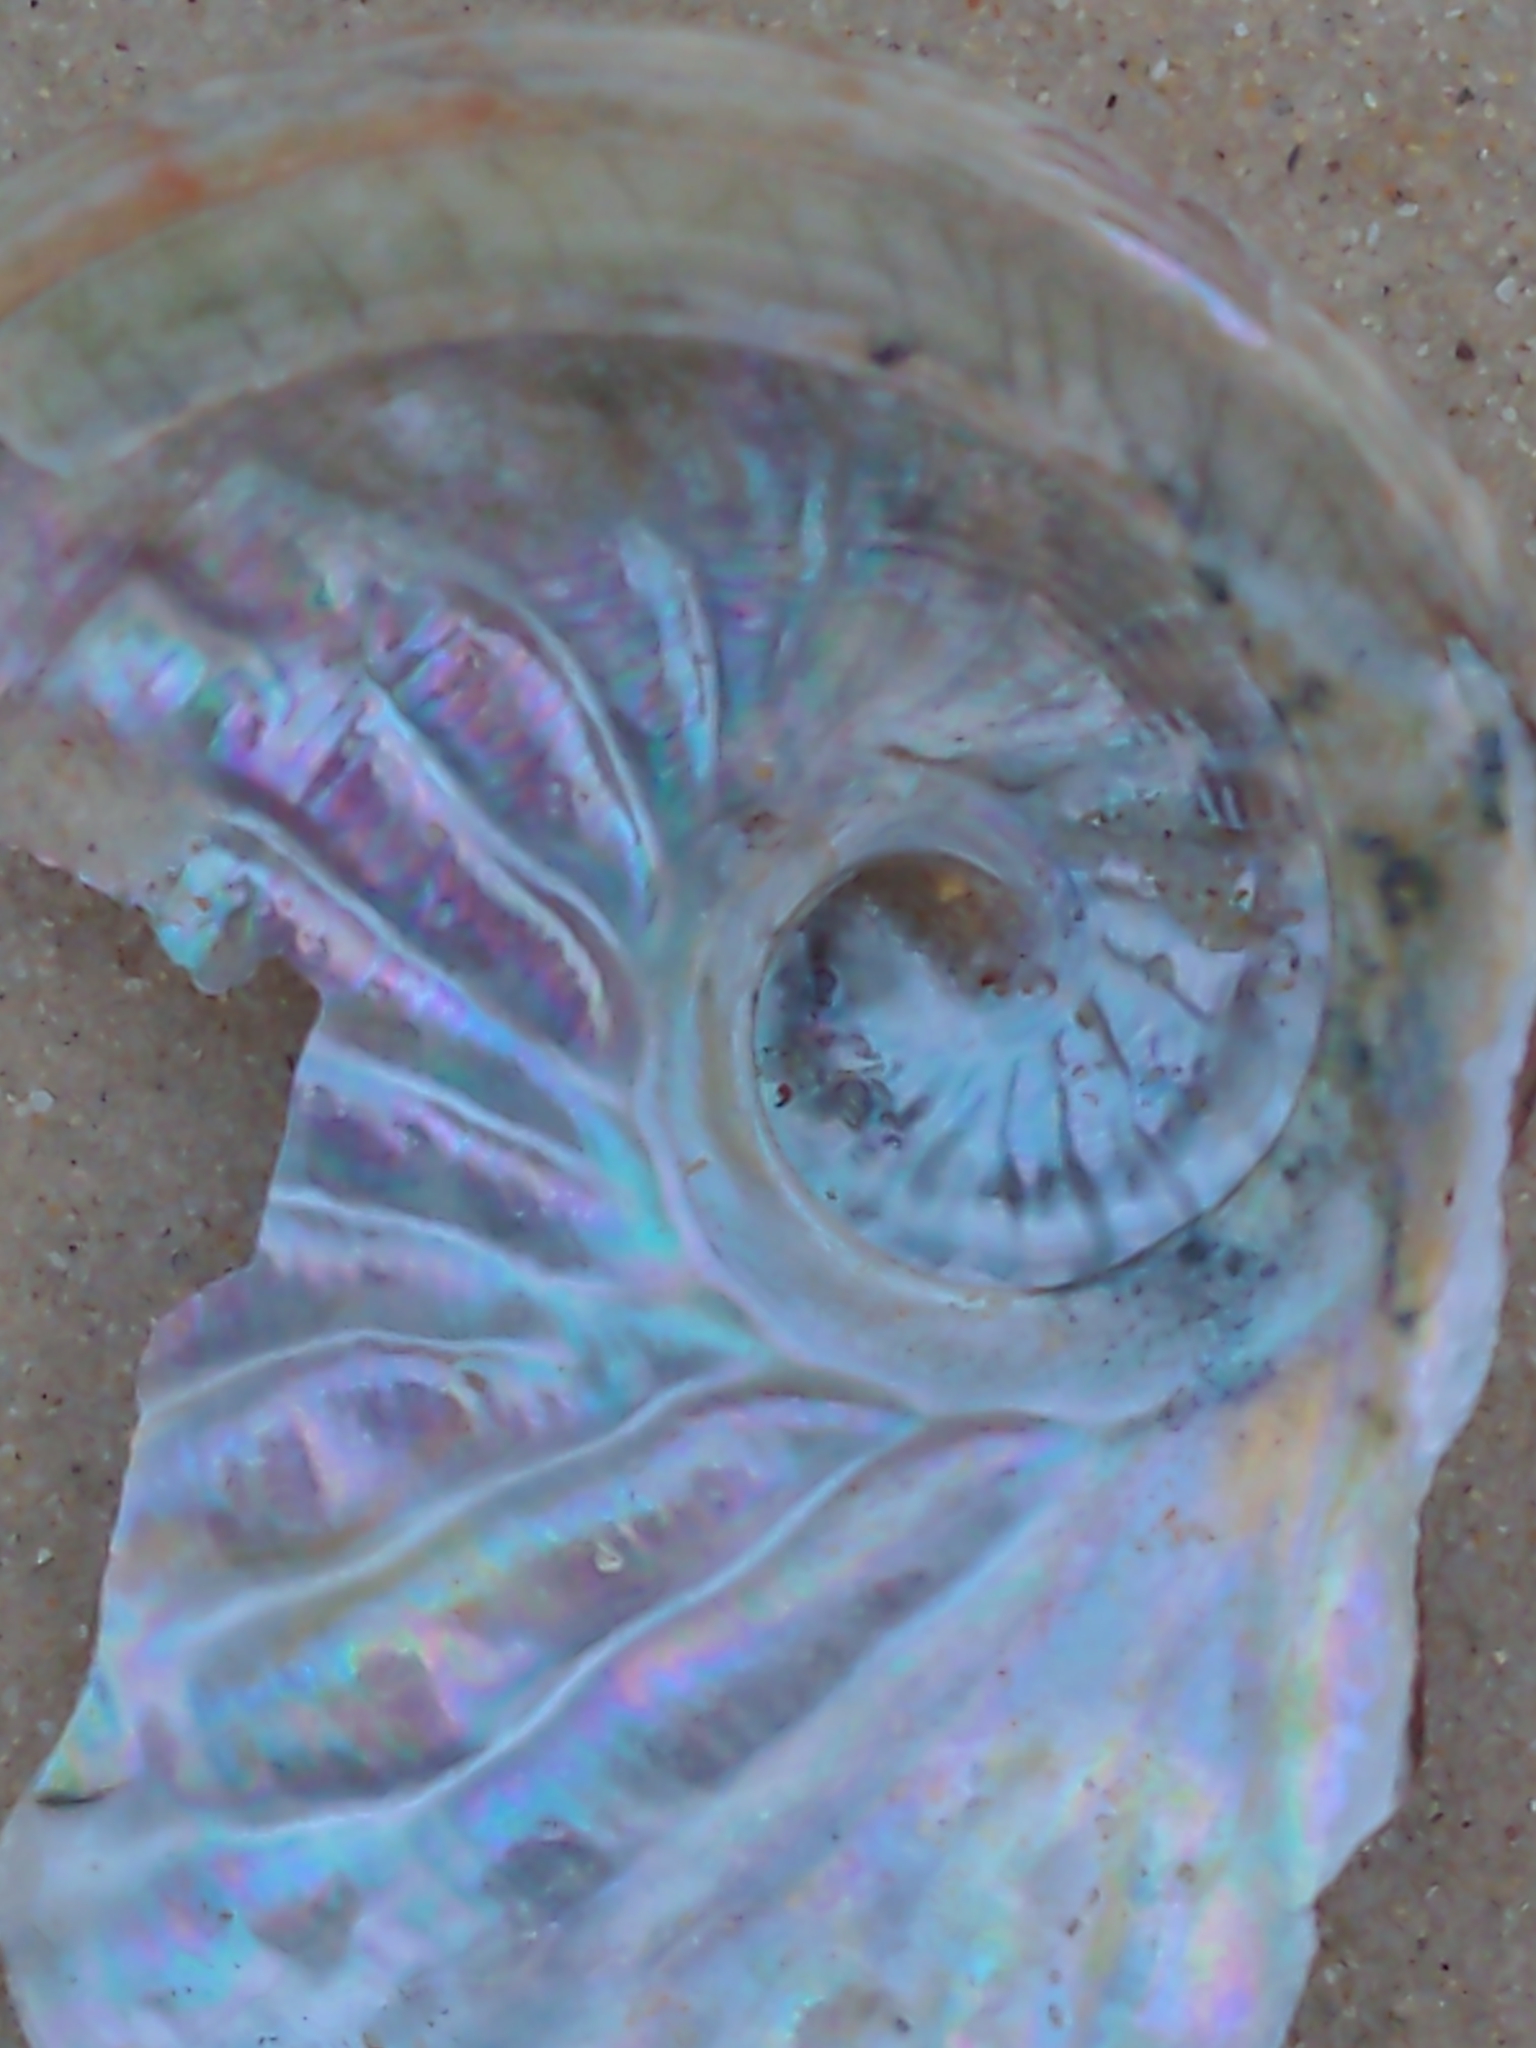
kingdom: Animalia
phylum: Mollusca
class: Gastropoda
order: Lepetellida
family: Haliotidae
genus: Haliotis
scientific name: Haliotis scalaris
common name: Staircase abalone
